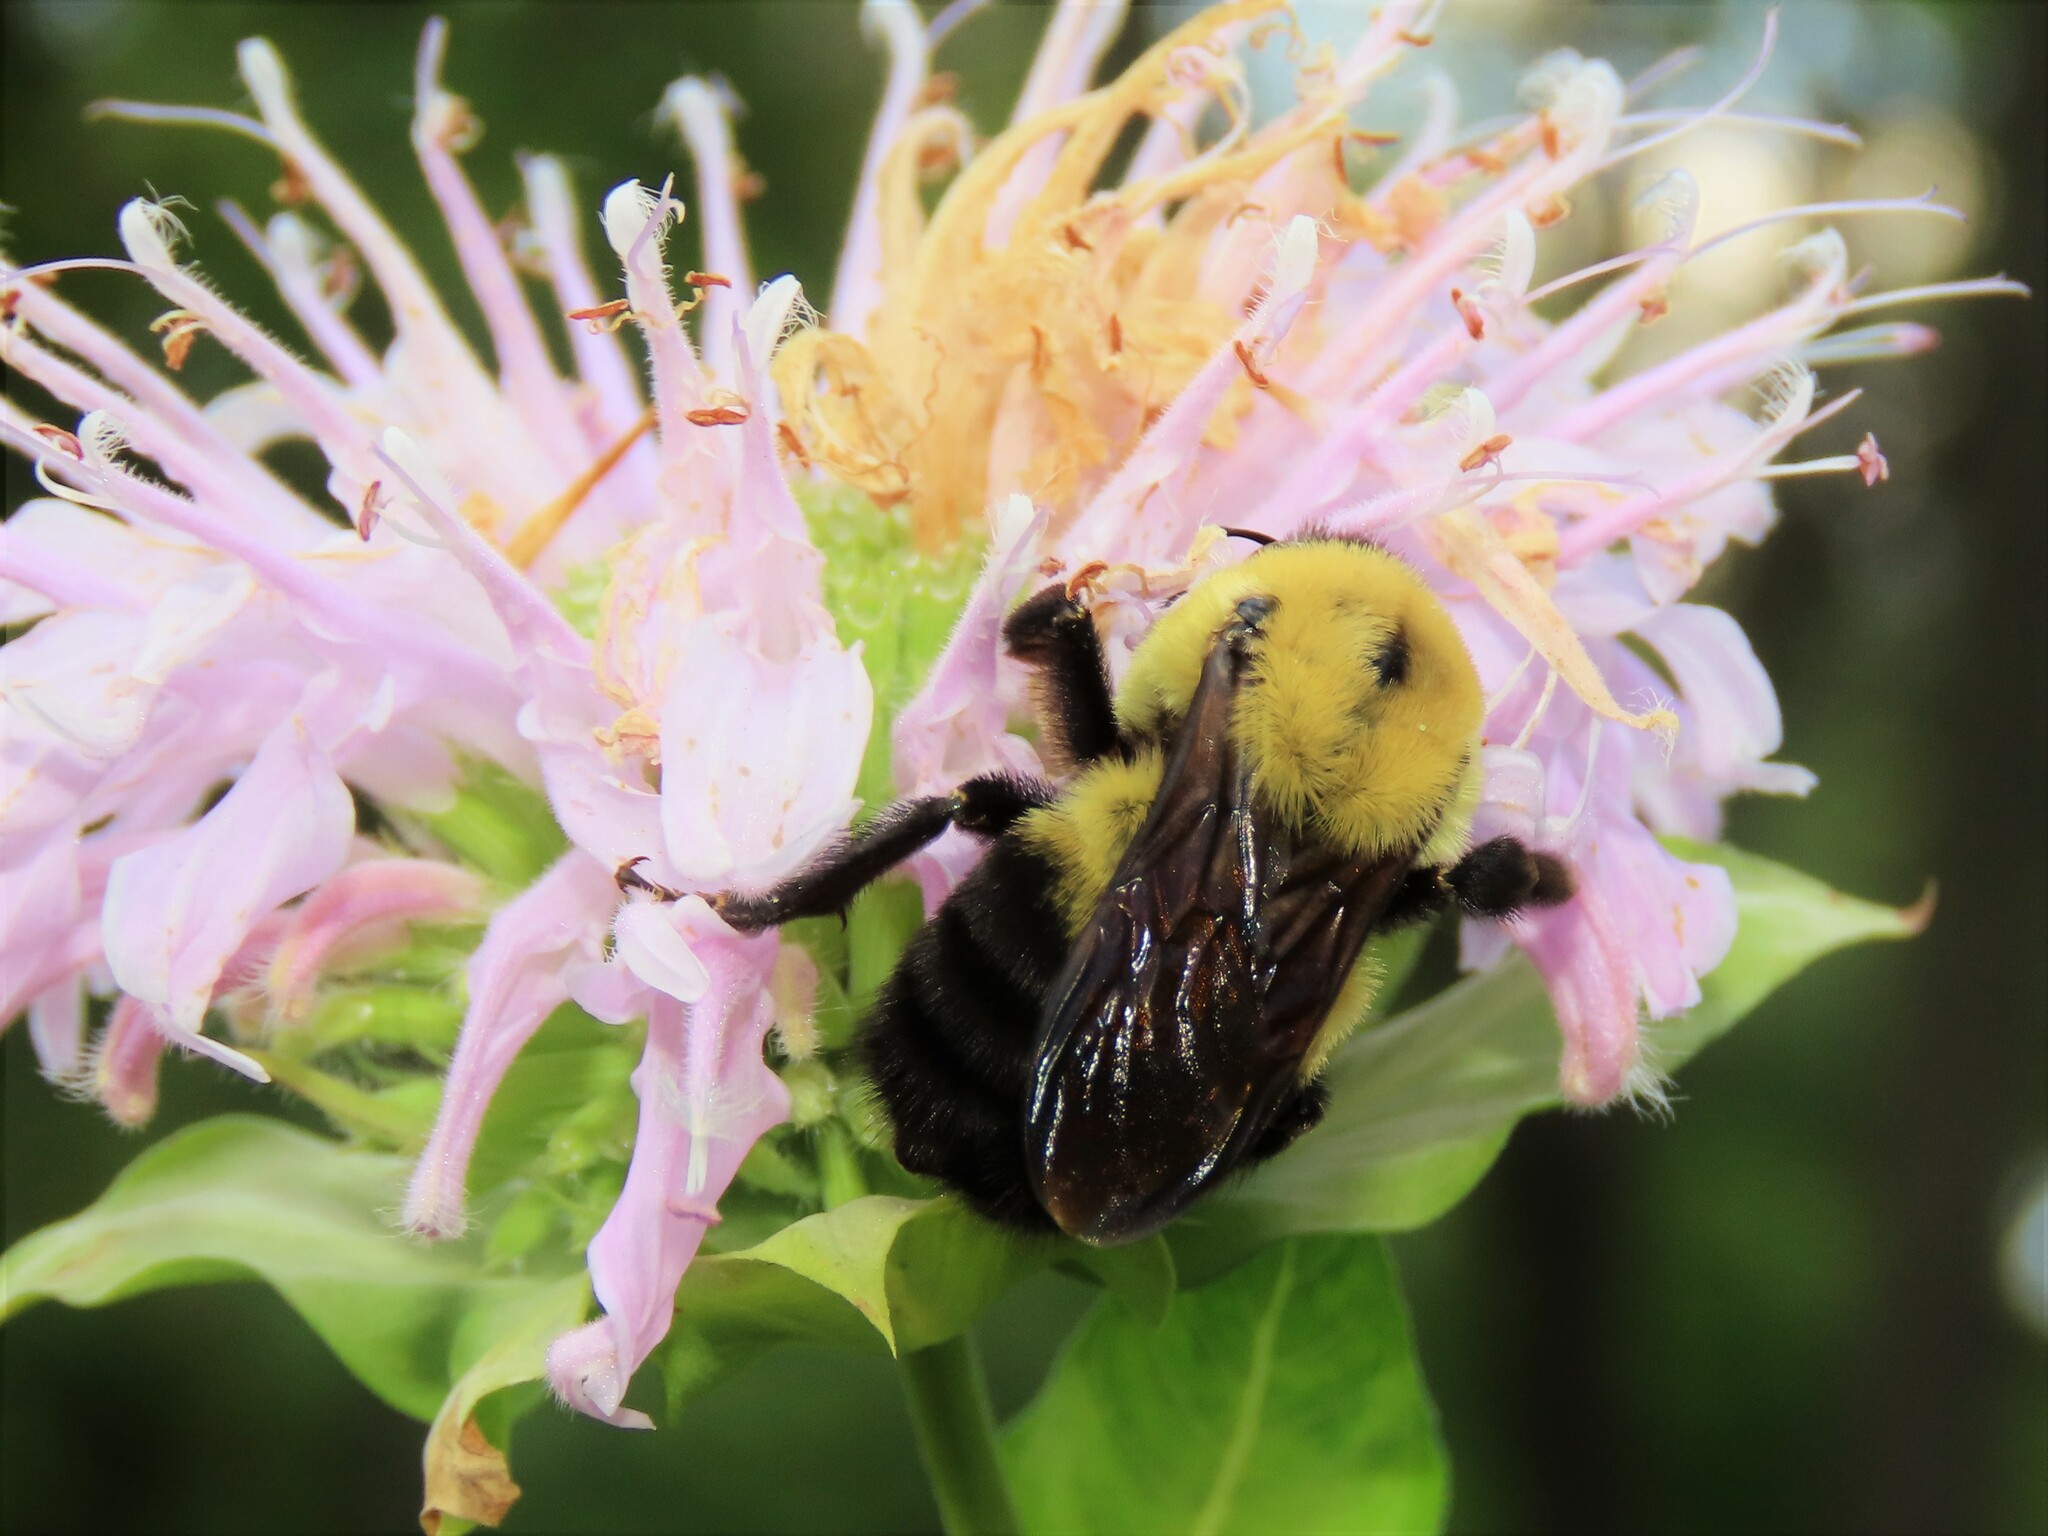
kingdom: Animalia
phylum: Arthropoda
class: Insecta
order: Hymenoptera
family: Apidae
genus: Bombus
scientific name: Bombus griseocollis
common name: Brown-belted bumble bee
